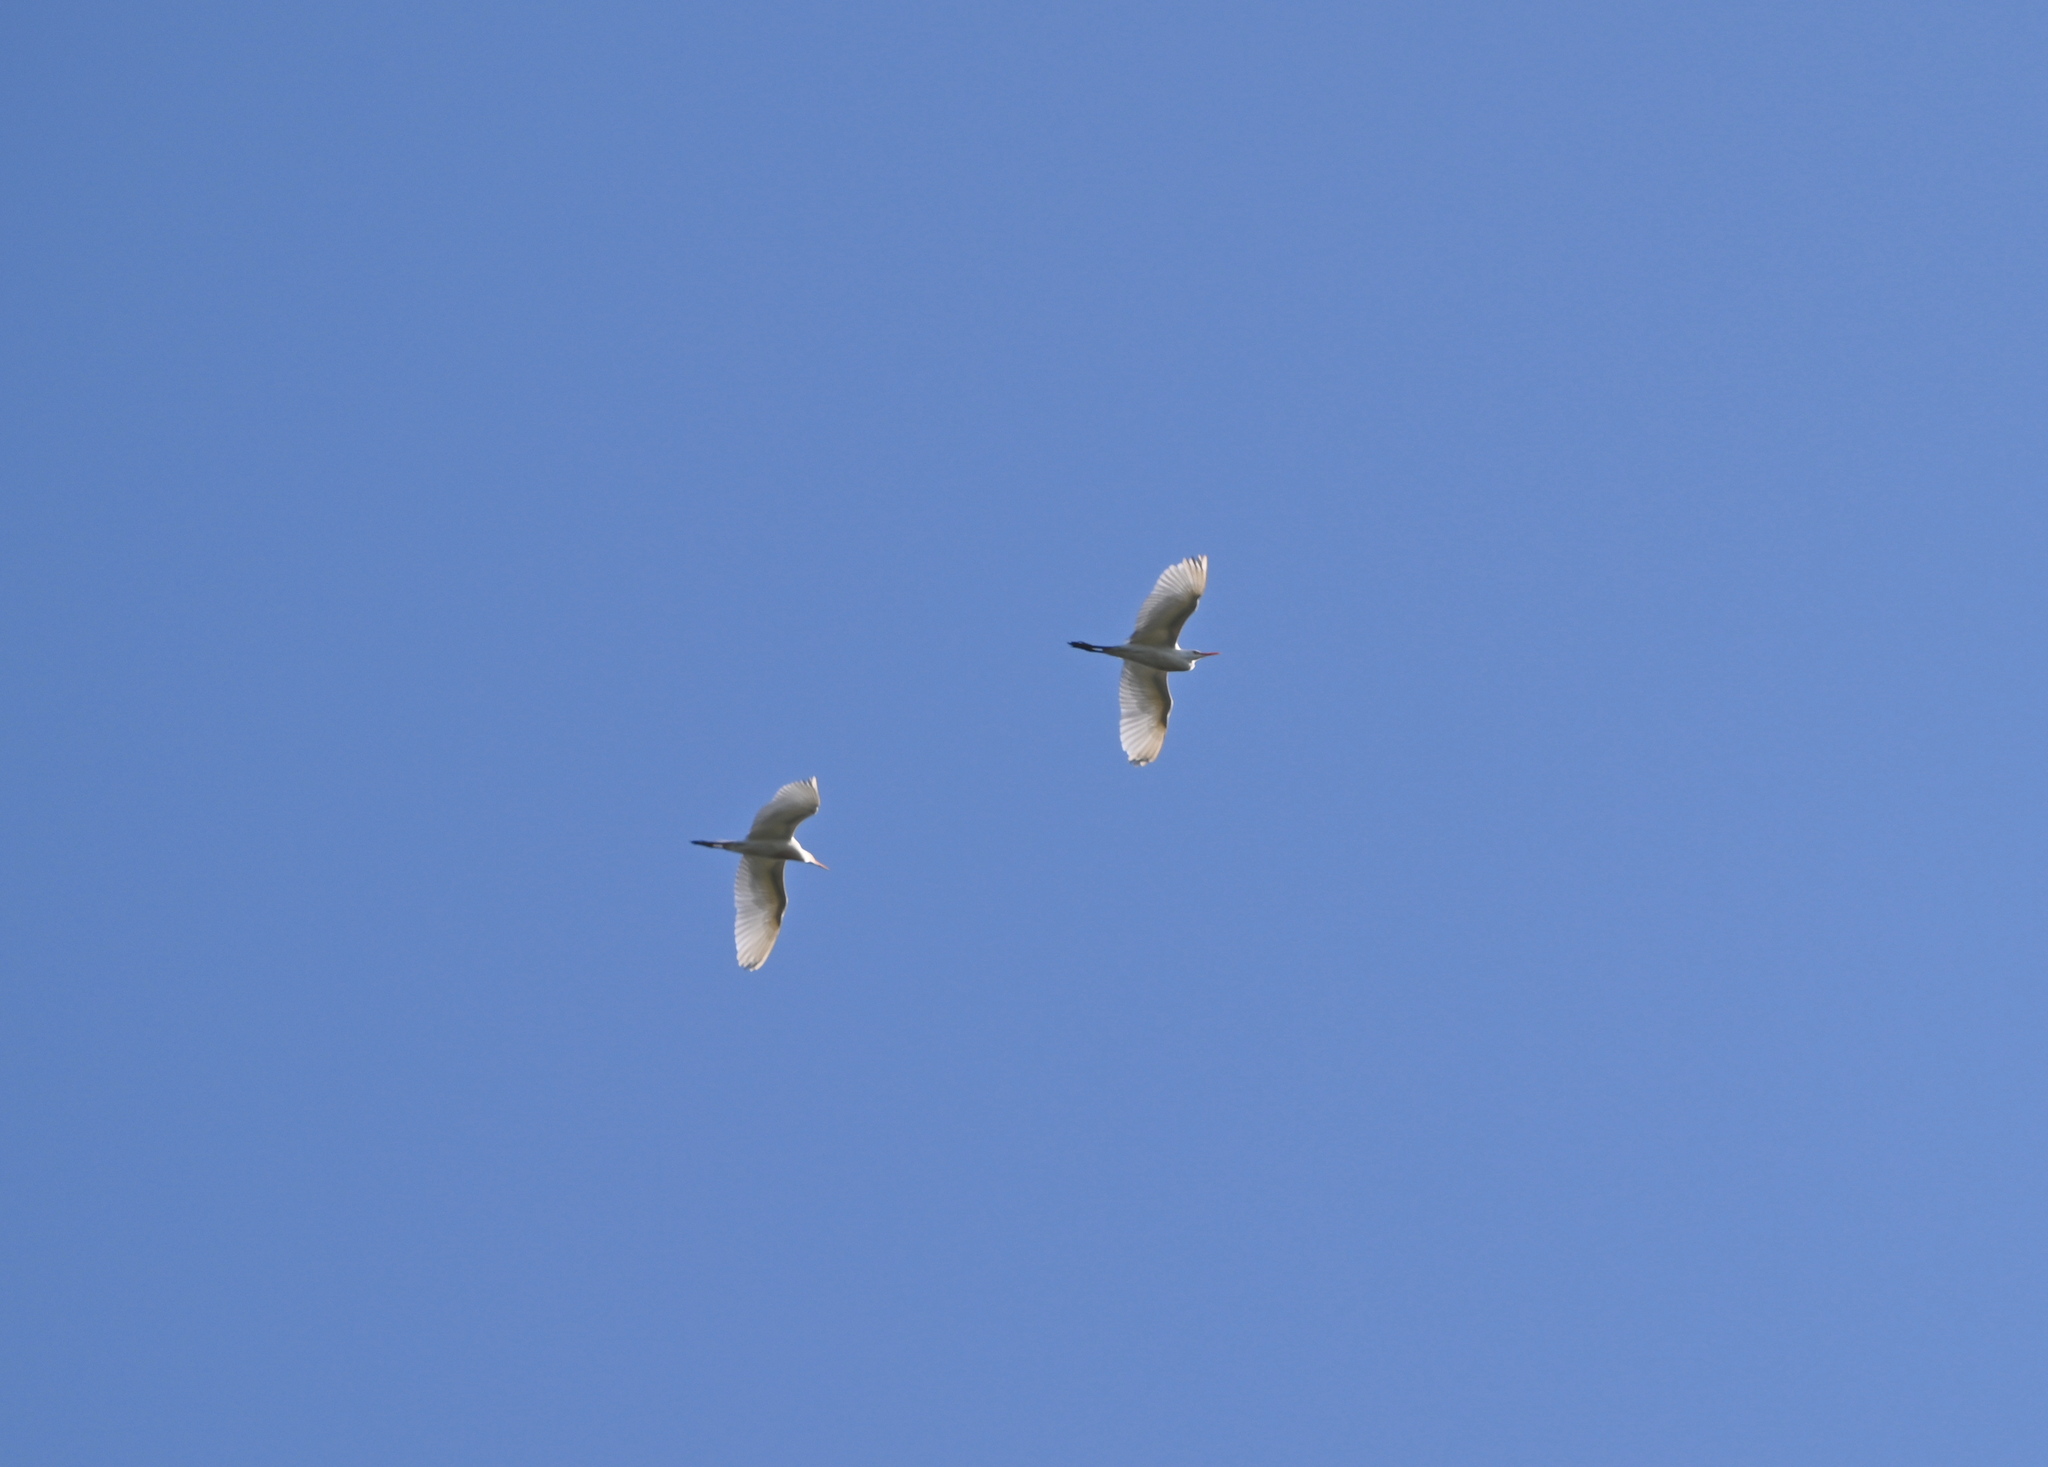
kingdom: Animalia
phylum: Chordata
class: Aves
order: Pelecaniformes
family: Ardeidae
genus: Ardea
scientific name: Ardea alba
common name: Great egret
